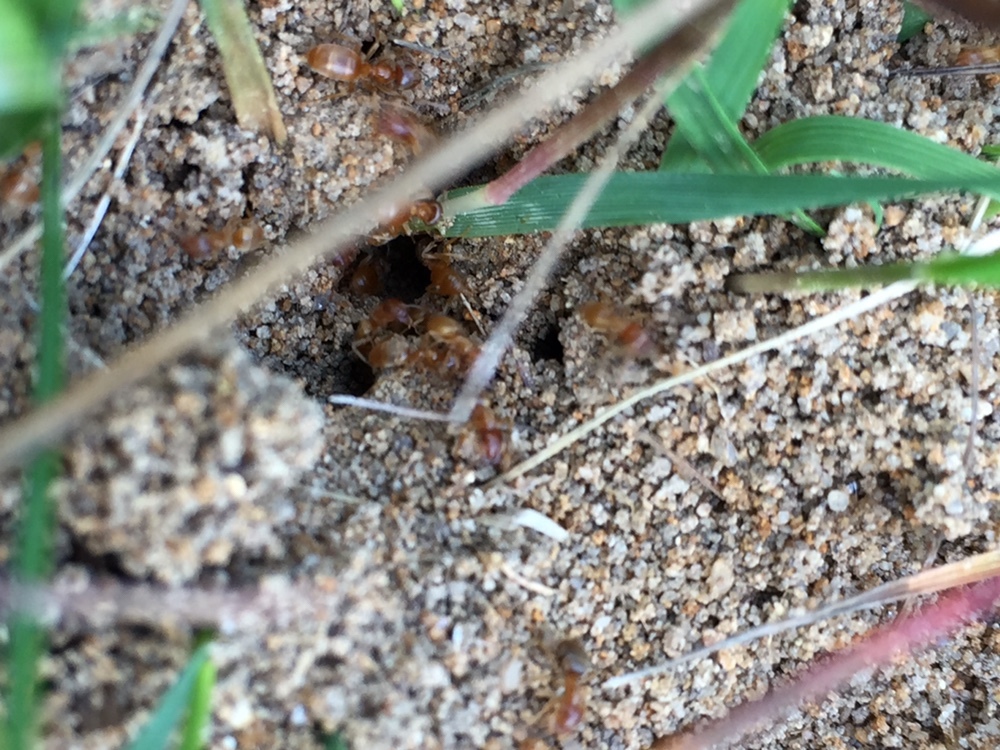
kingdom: Animalia
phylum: Arthropoda
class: Insecta
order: Hymenoptera
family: Formicidae
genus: Lasius
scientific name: Lasius flavus
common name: Blond field ant
